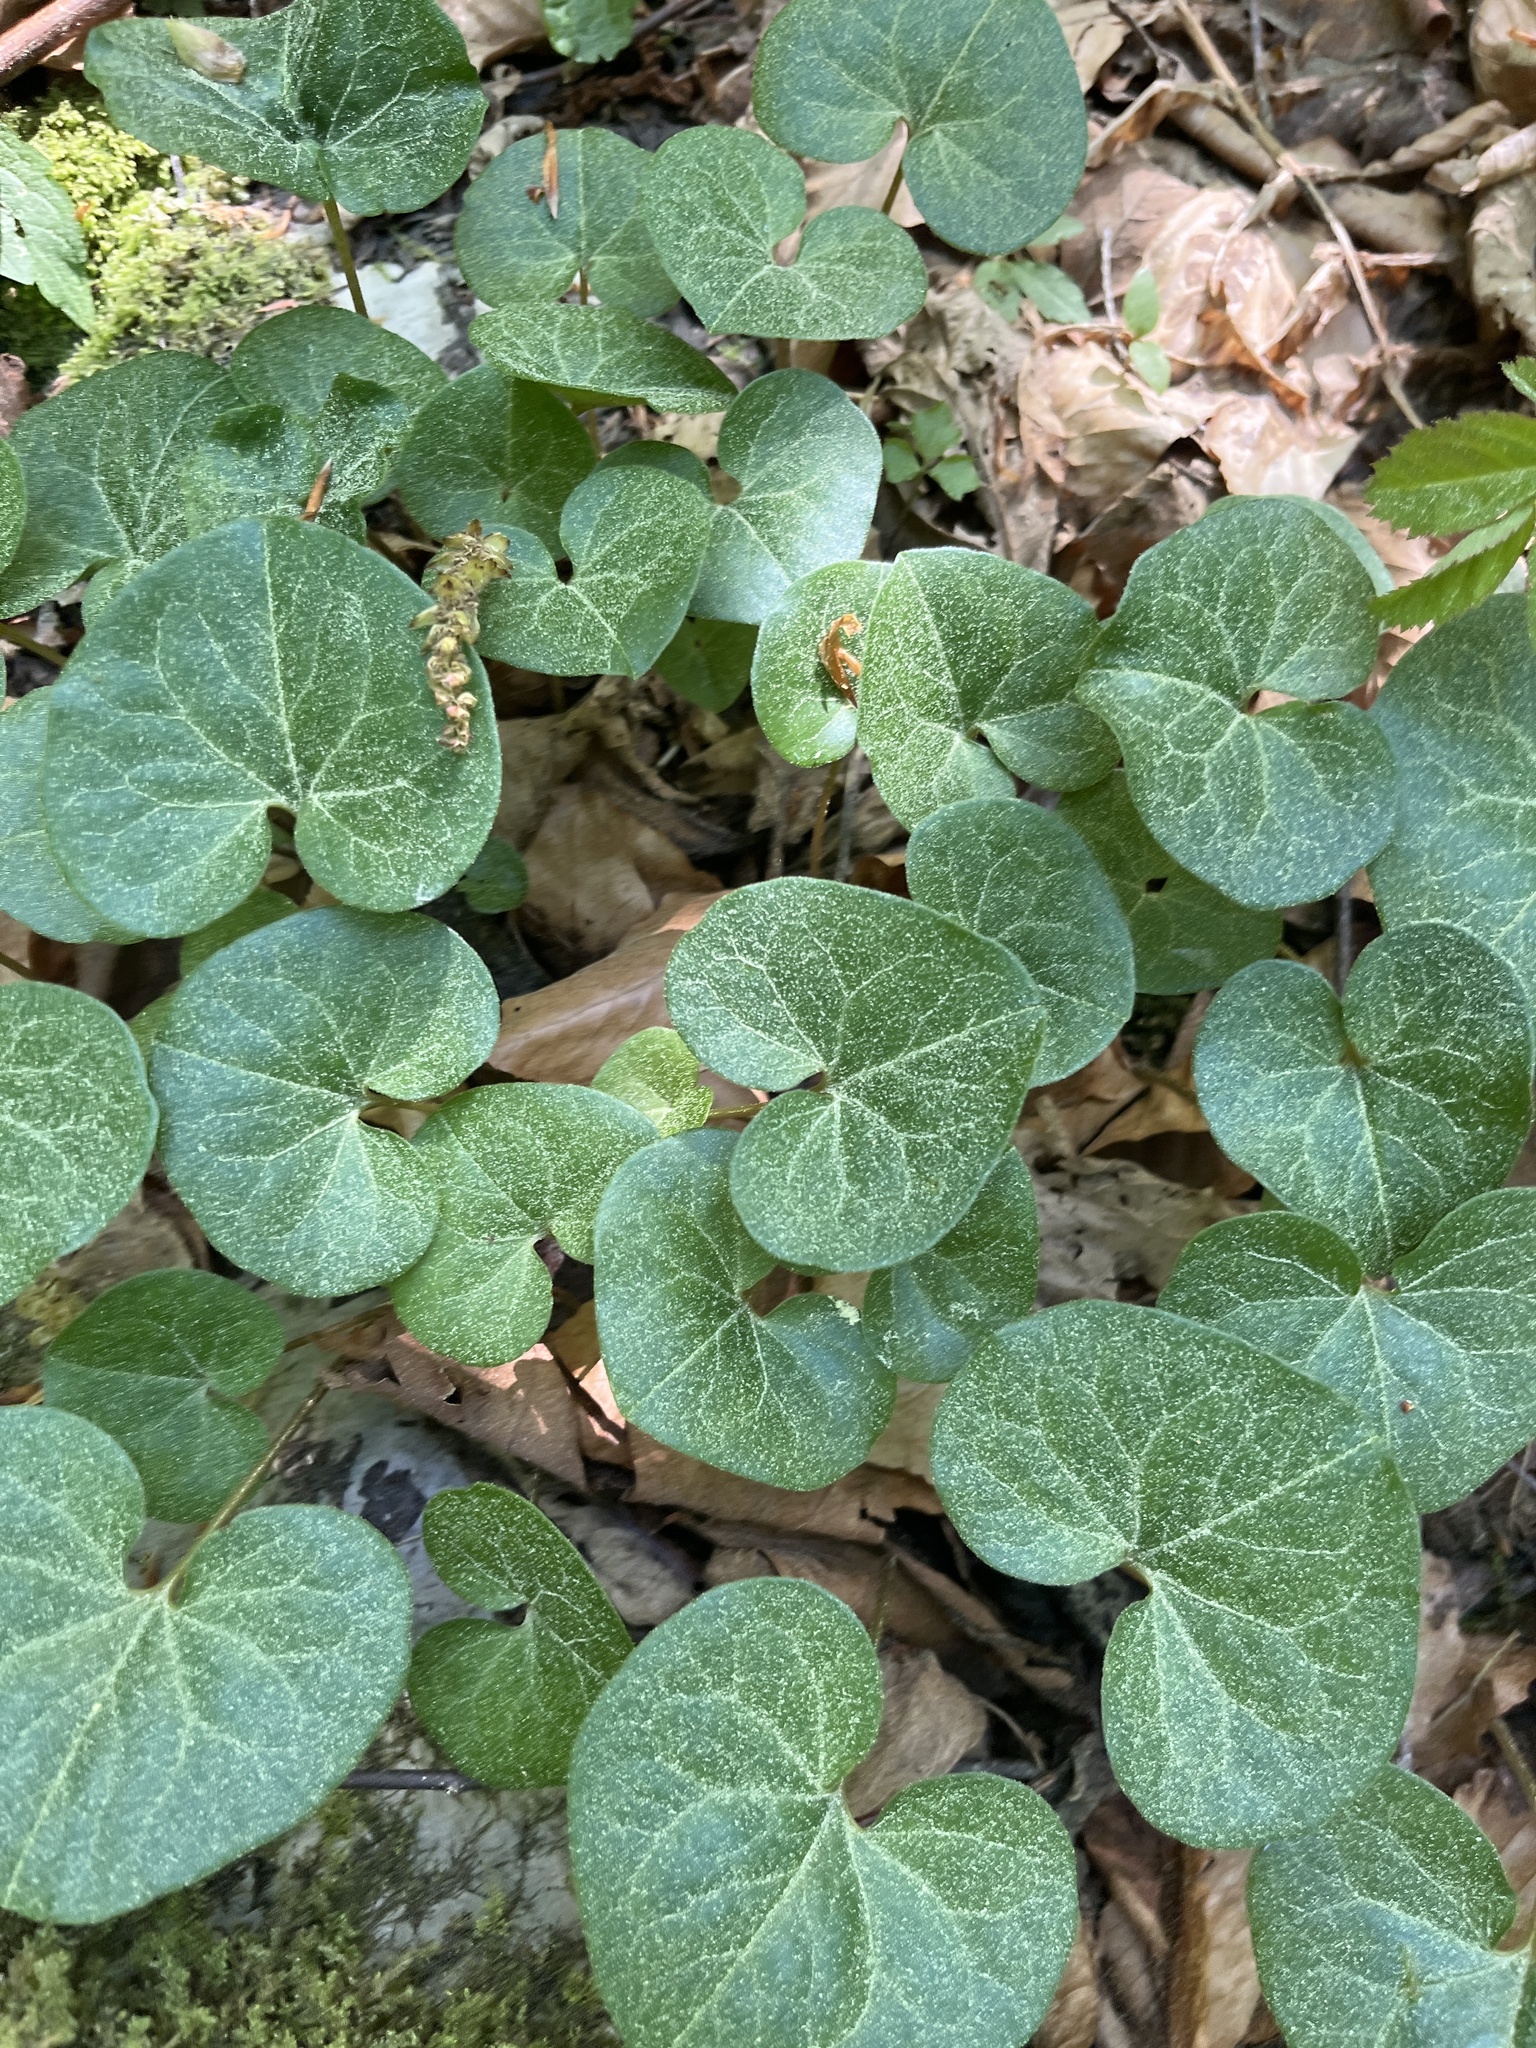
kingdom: Plantae
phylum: Tracheophyta
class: Magnoliopsida
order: Piperales
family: Aristolochiaceae
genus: Asarum
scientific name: Asarum europaeum
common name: Asarabacca
